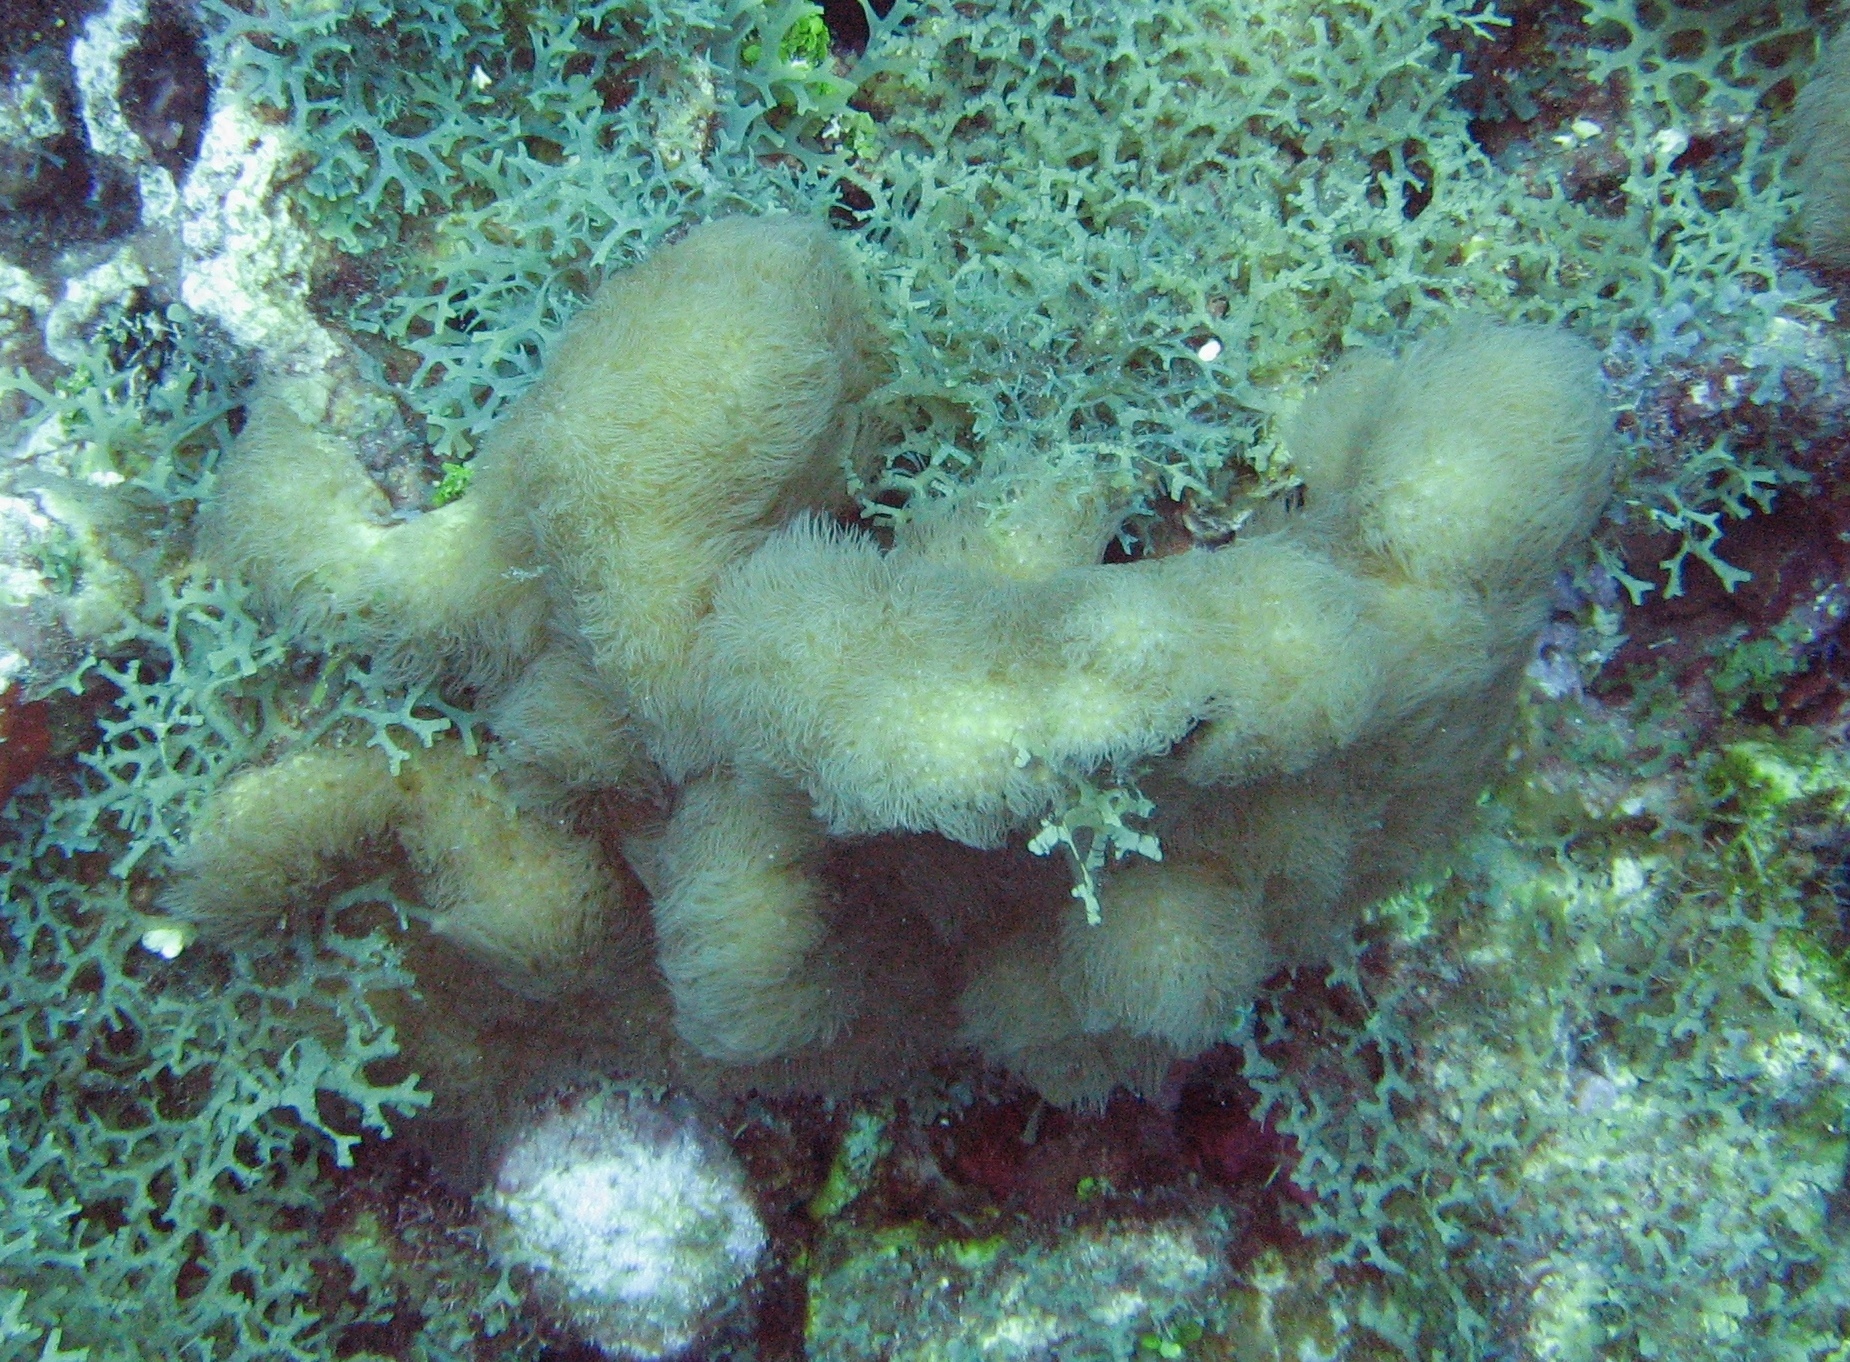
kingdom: Animalia
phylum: Cnidaria
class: Anthozoa
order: Scleralcyonacea
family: Erythropodiidae
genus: Erythropodium
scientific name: Erythropodium caribaeorum
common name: Encrusting gorgonian
